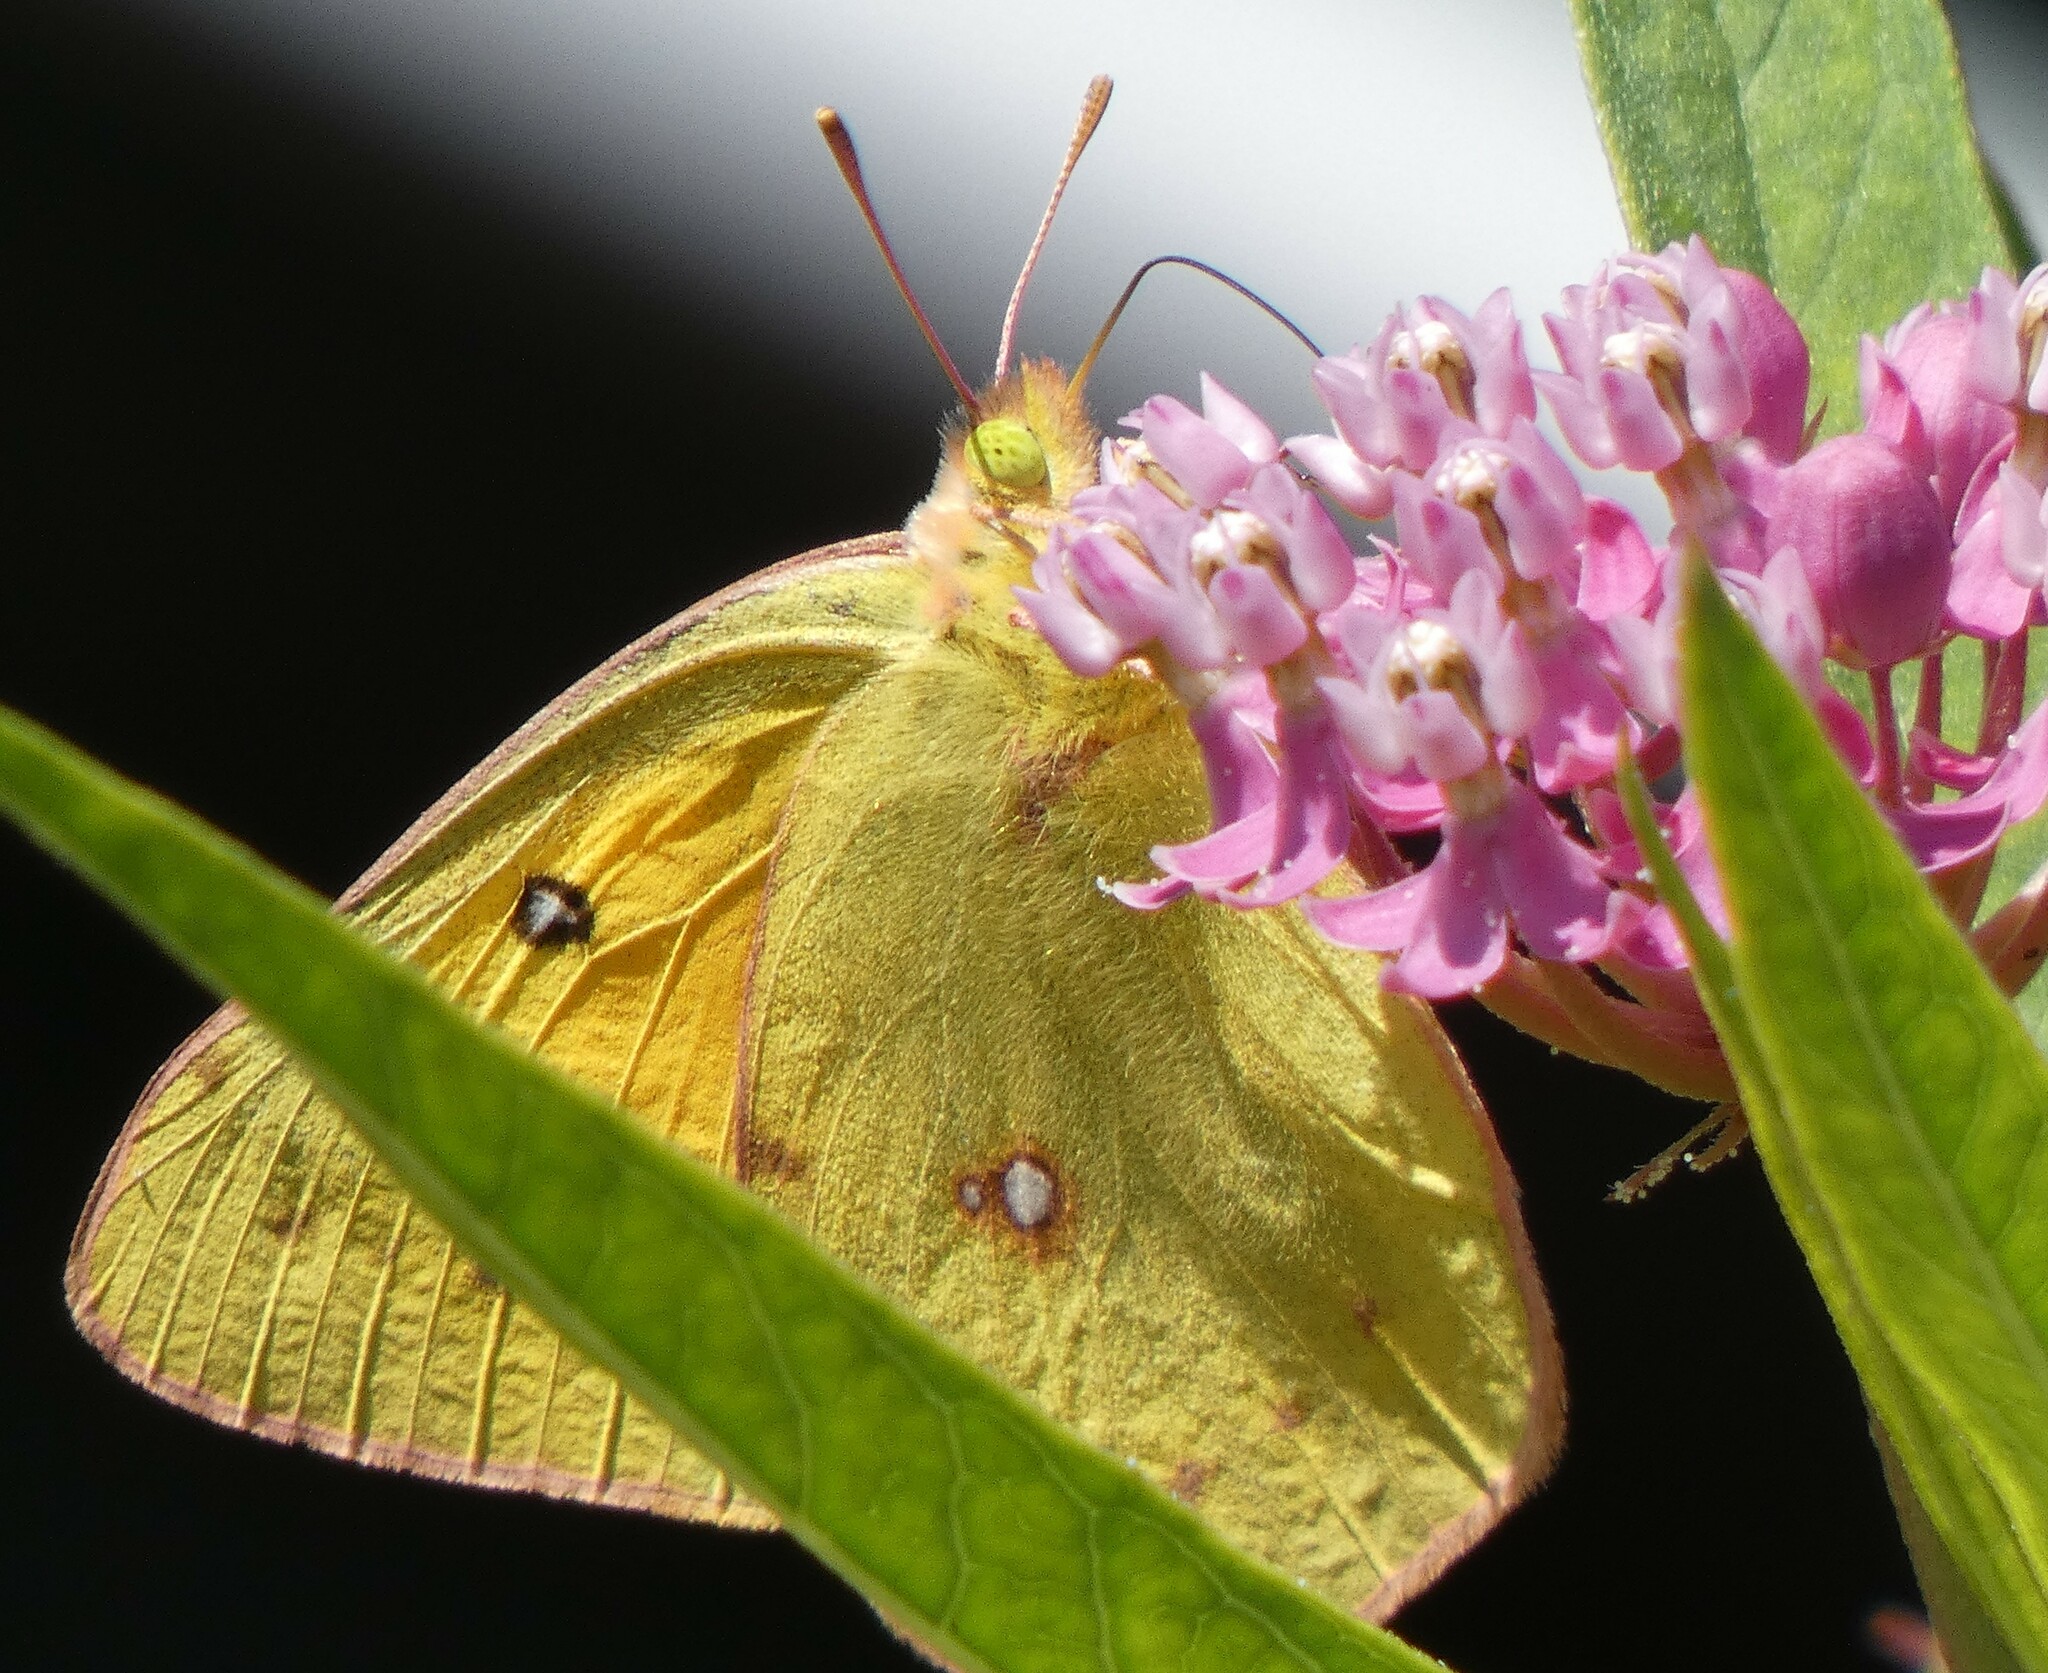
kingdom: Animalia
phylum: Arthropoda
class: Insecta
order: Lepidoptera
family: Pieridae
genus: Colias
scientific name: Colias eurytheme
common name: Alfalfa butterfly
